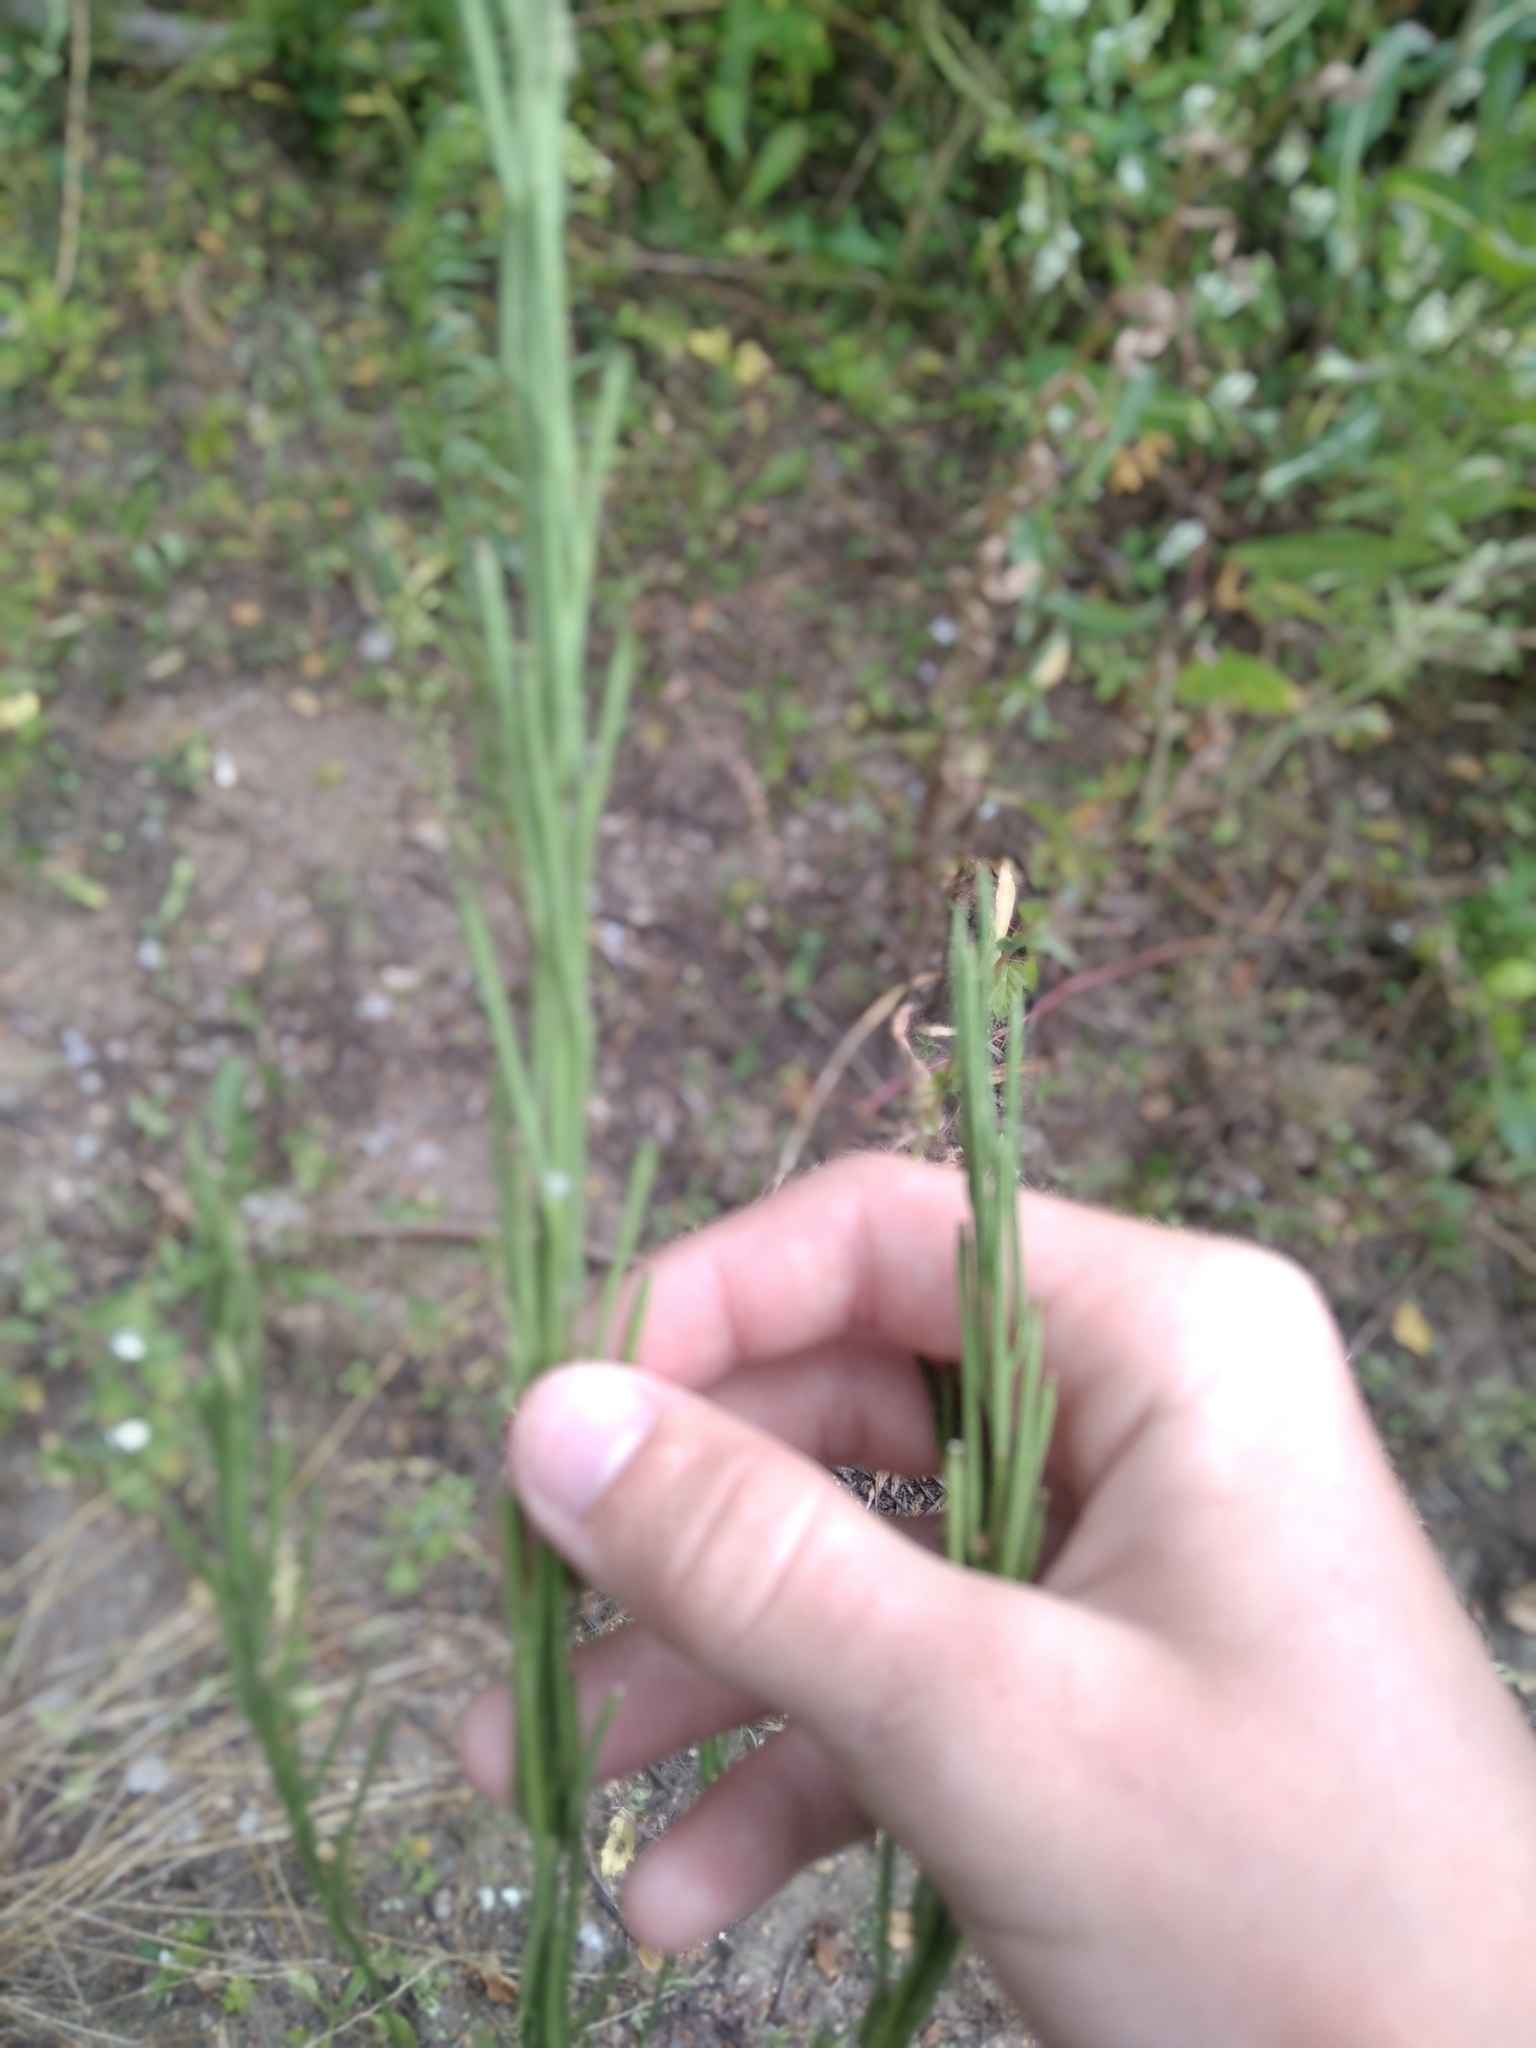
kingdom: Plantae
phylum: Tracheophyta
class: Magnoliopsida
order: Brassicales
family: Brassicaceae
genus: Turritis
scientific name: Turritis glabra
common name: Tower rockcress
